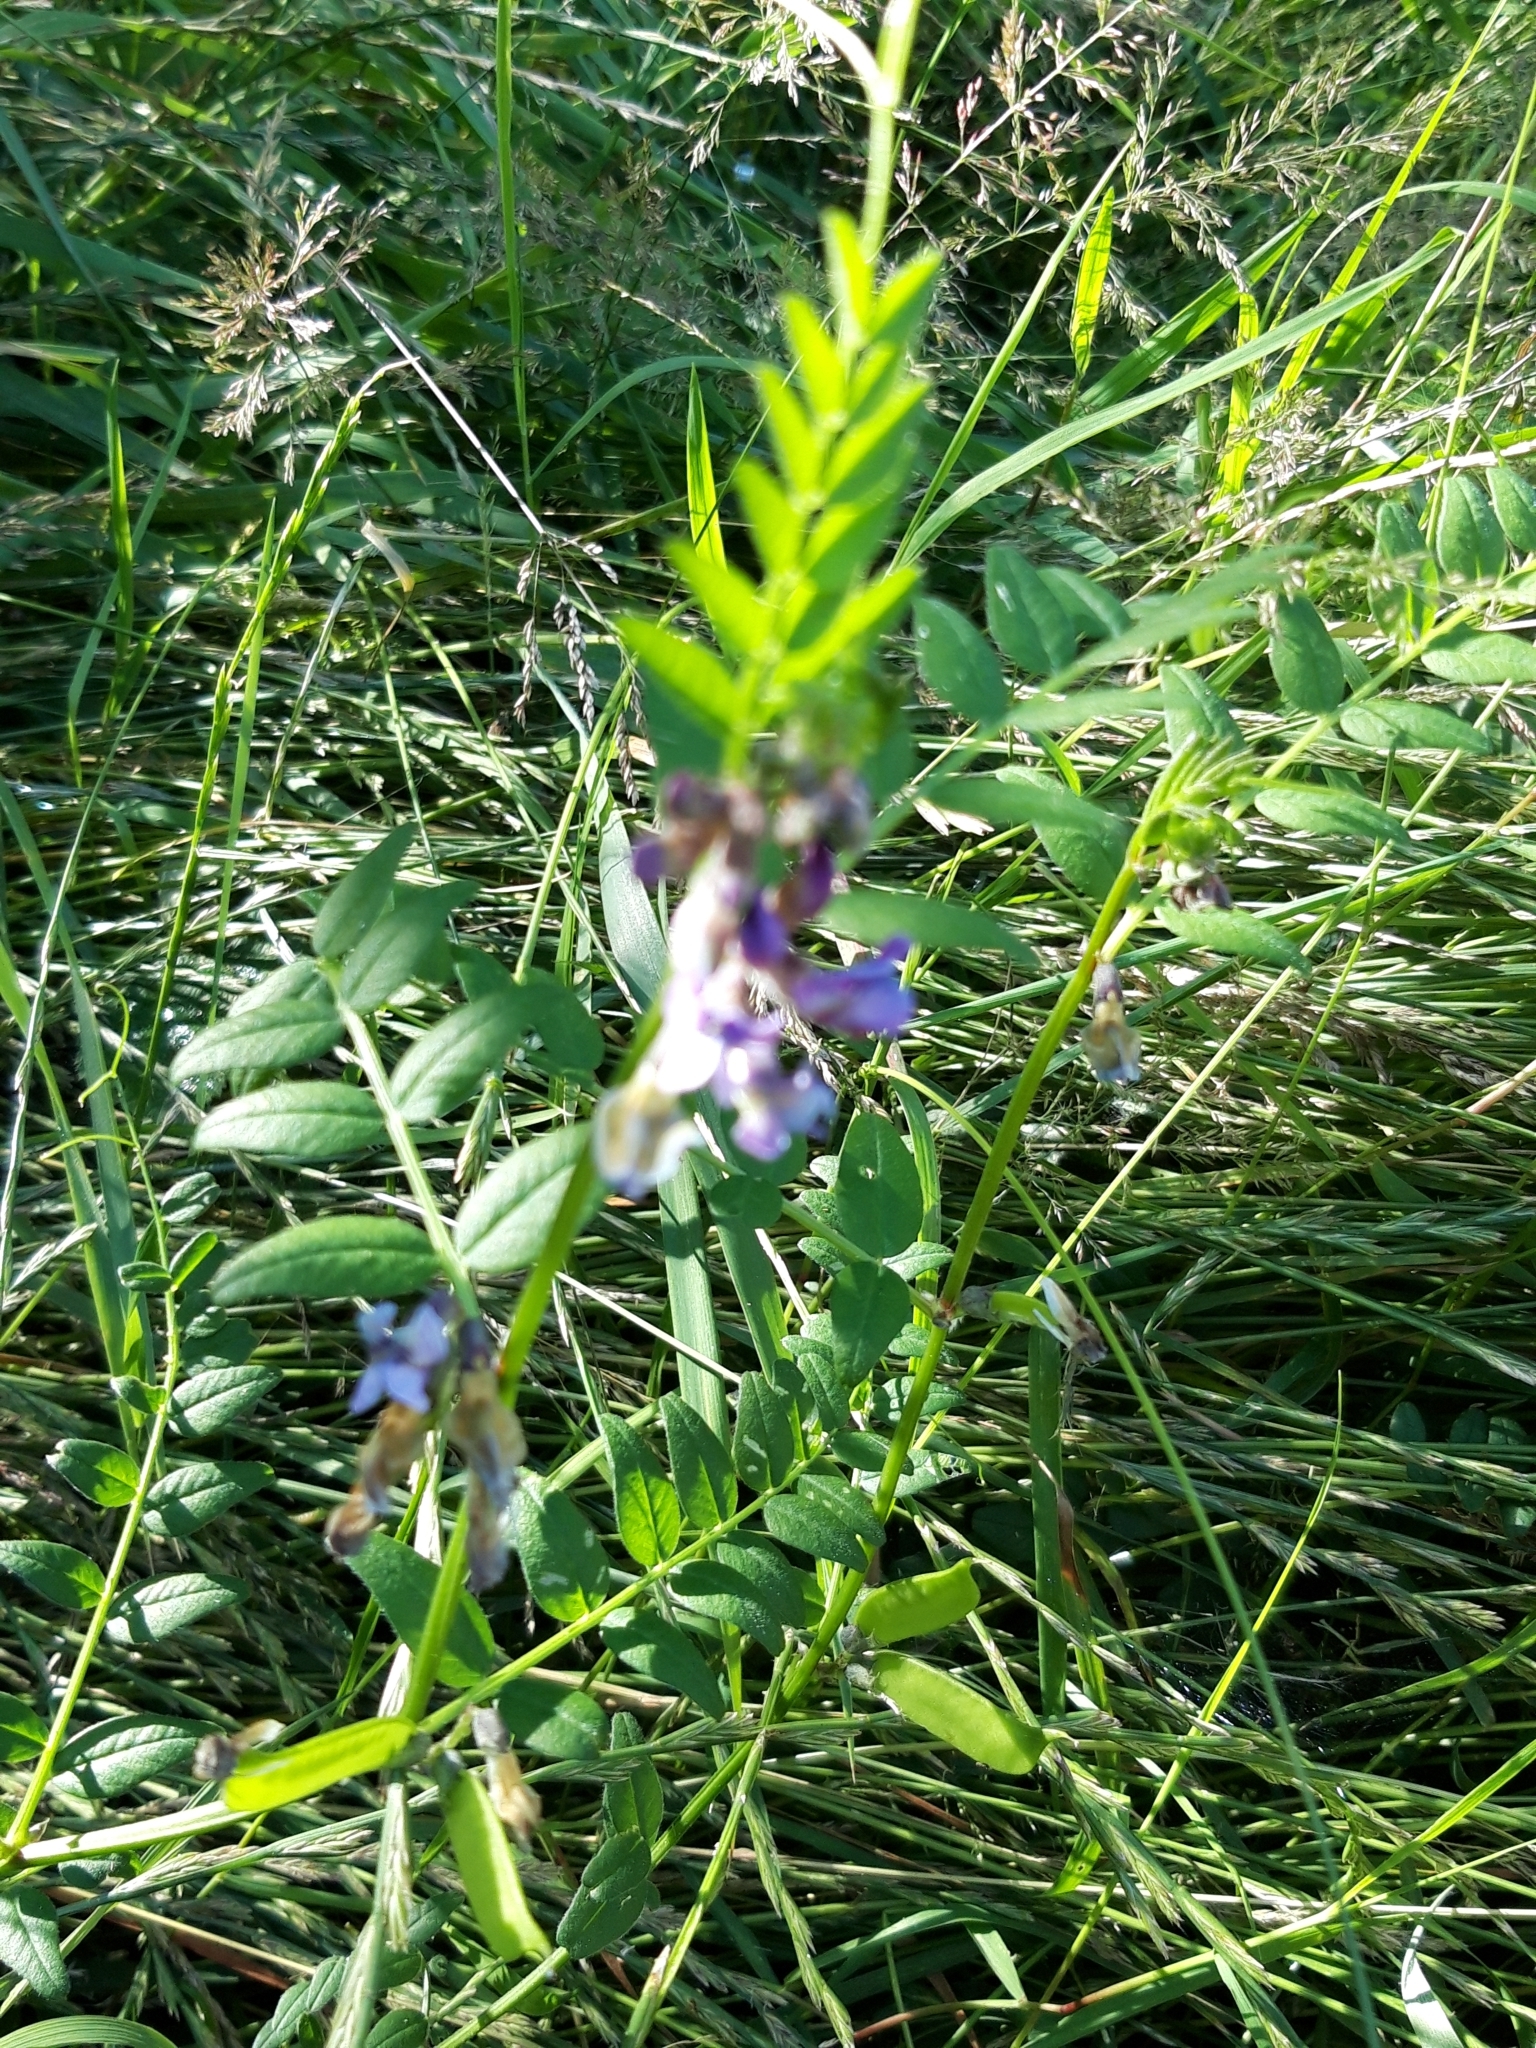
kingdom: Plantae
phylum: Tracheophyta
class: Magnoliopsida
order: Fabales
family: Fabaceae
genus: Vicia
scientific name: Vicia sepium
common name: Bush vetch
